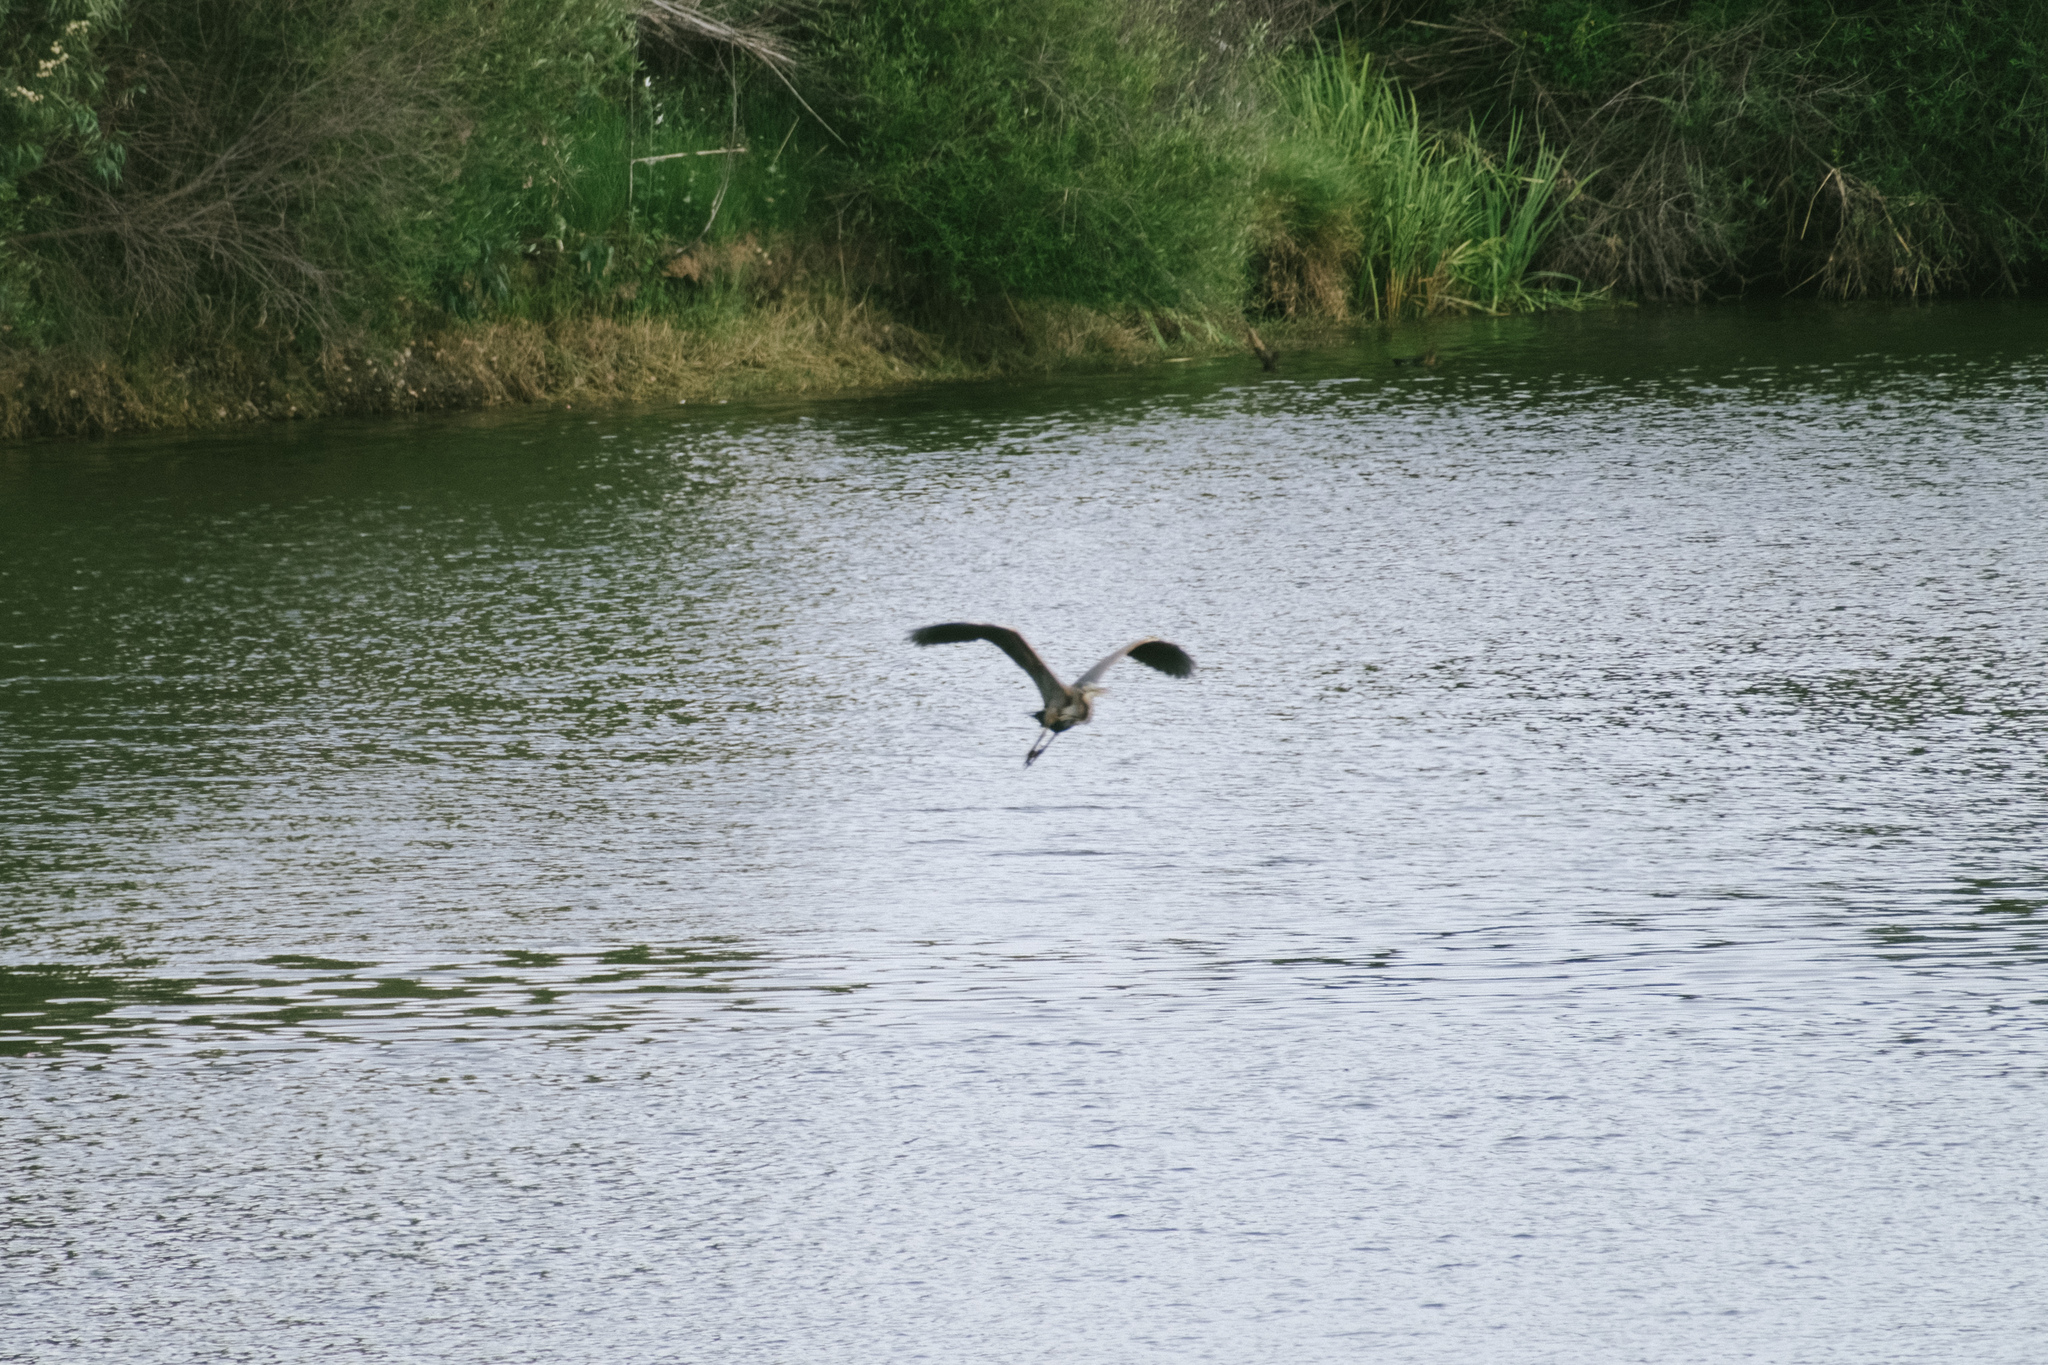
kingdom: Animalia
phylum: Chordata
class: Aves
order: Pelecaniformes
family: Ardeidae
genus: Ardea
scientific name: Ardea purpurea
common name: Purple heron
